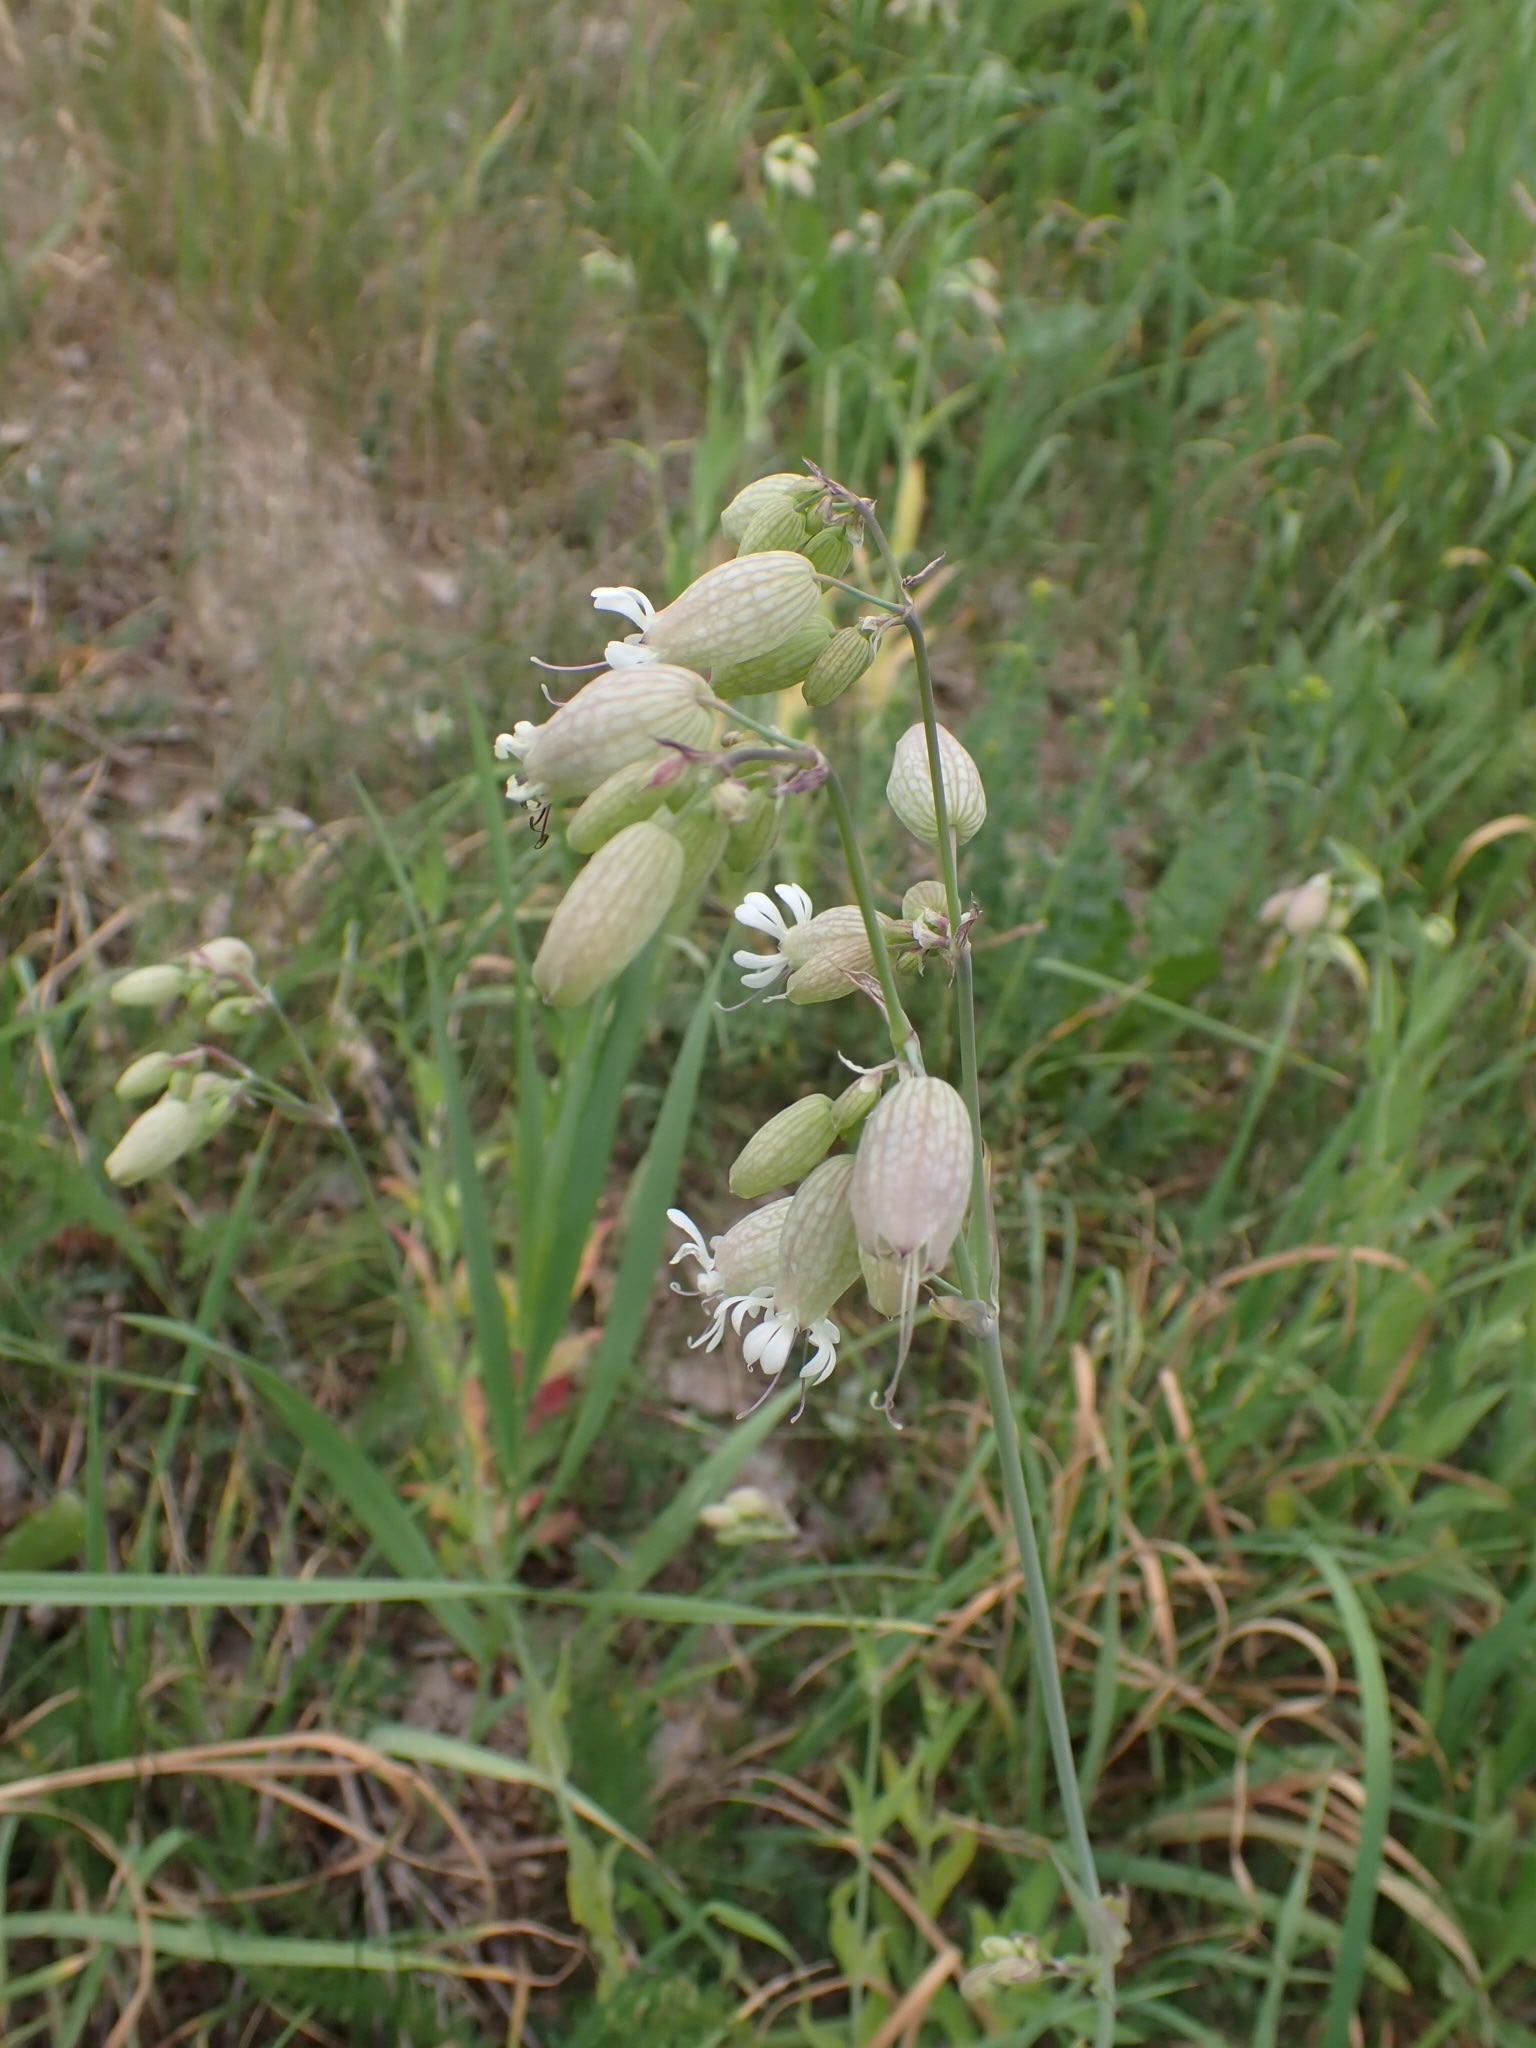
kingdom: Plantae
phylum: Tracheophyta
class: Magnoliopsida
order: Caryophyllales
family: Caryophyllaceae
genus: Silene
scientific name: Silene vulgaris
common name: Bladder campion
